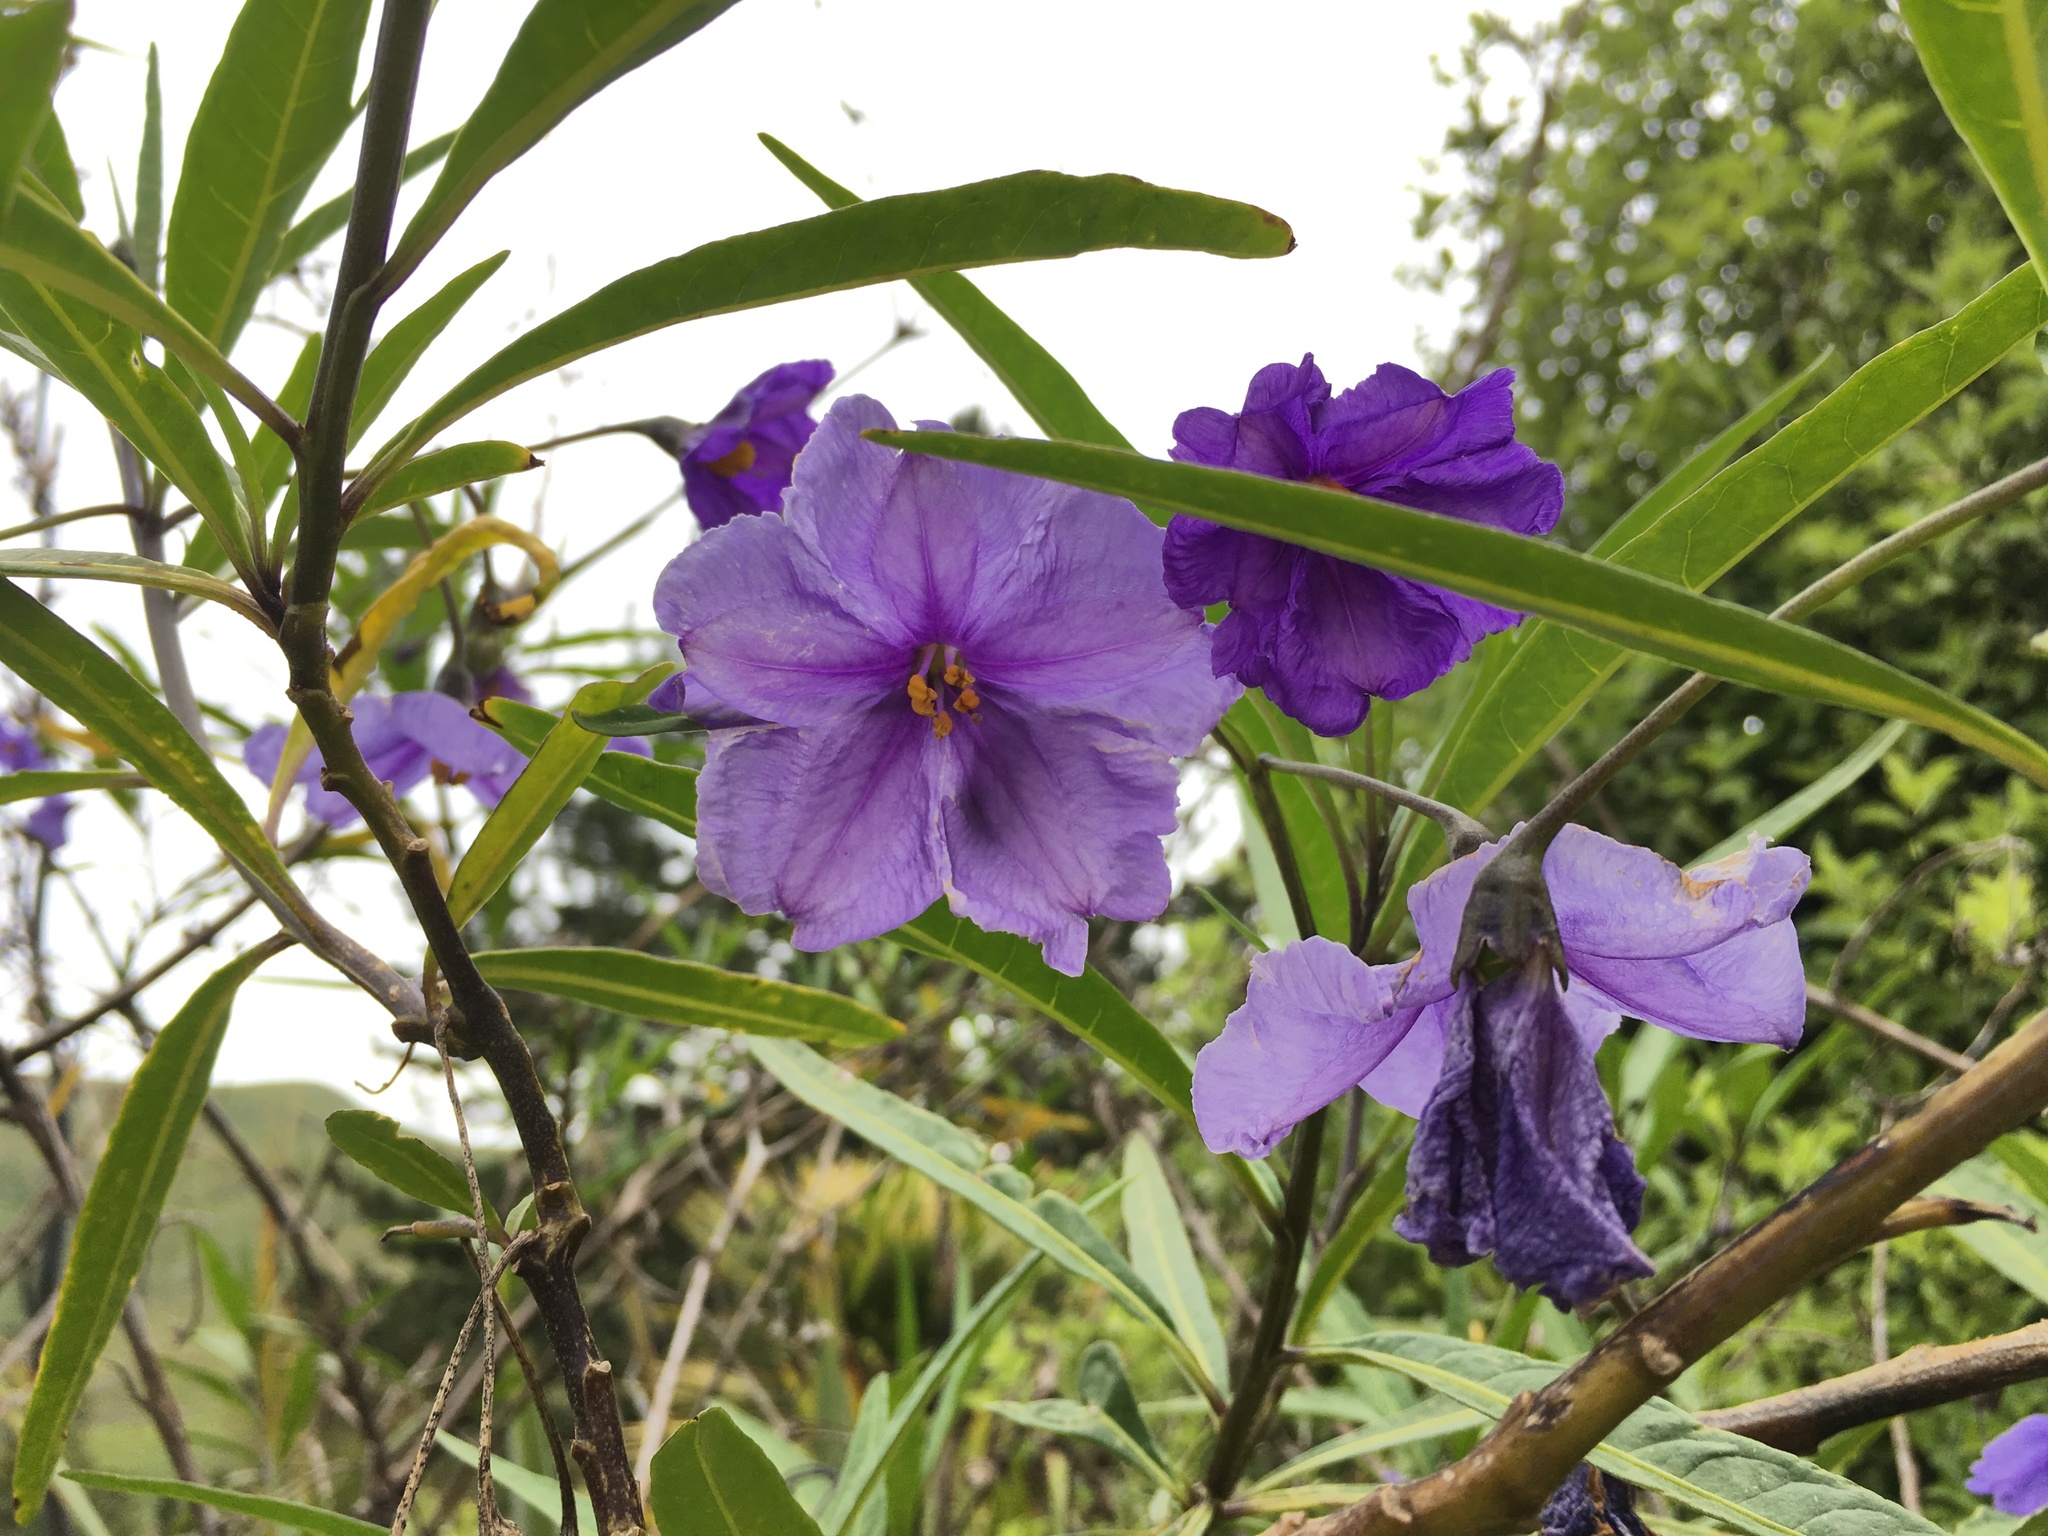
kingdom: Plantae
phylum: Tracheophyta
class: Magnoliopsida
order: Solanales
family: Solanaceae
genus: Solanum
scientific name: Solanum laciniatum
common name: Kangaroo-apple
